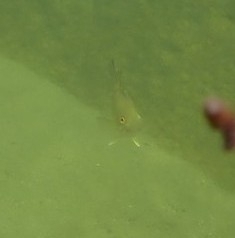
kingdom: Animalia
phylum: Chordata
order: Perciformes
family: Centrarchidae
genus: Micropterus
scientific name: Micropterus dolomieu
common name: Smallmouth bass
